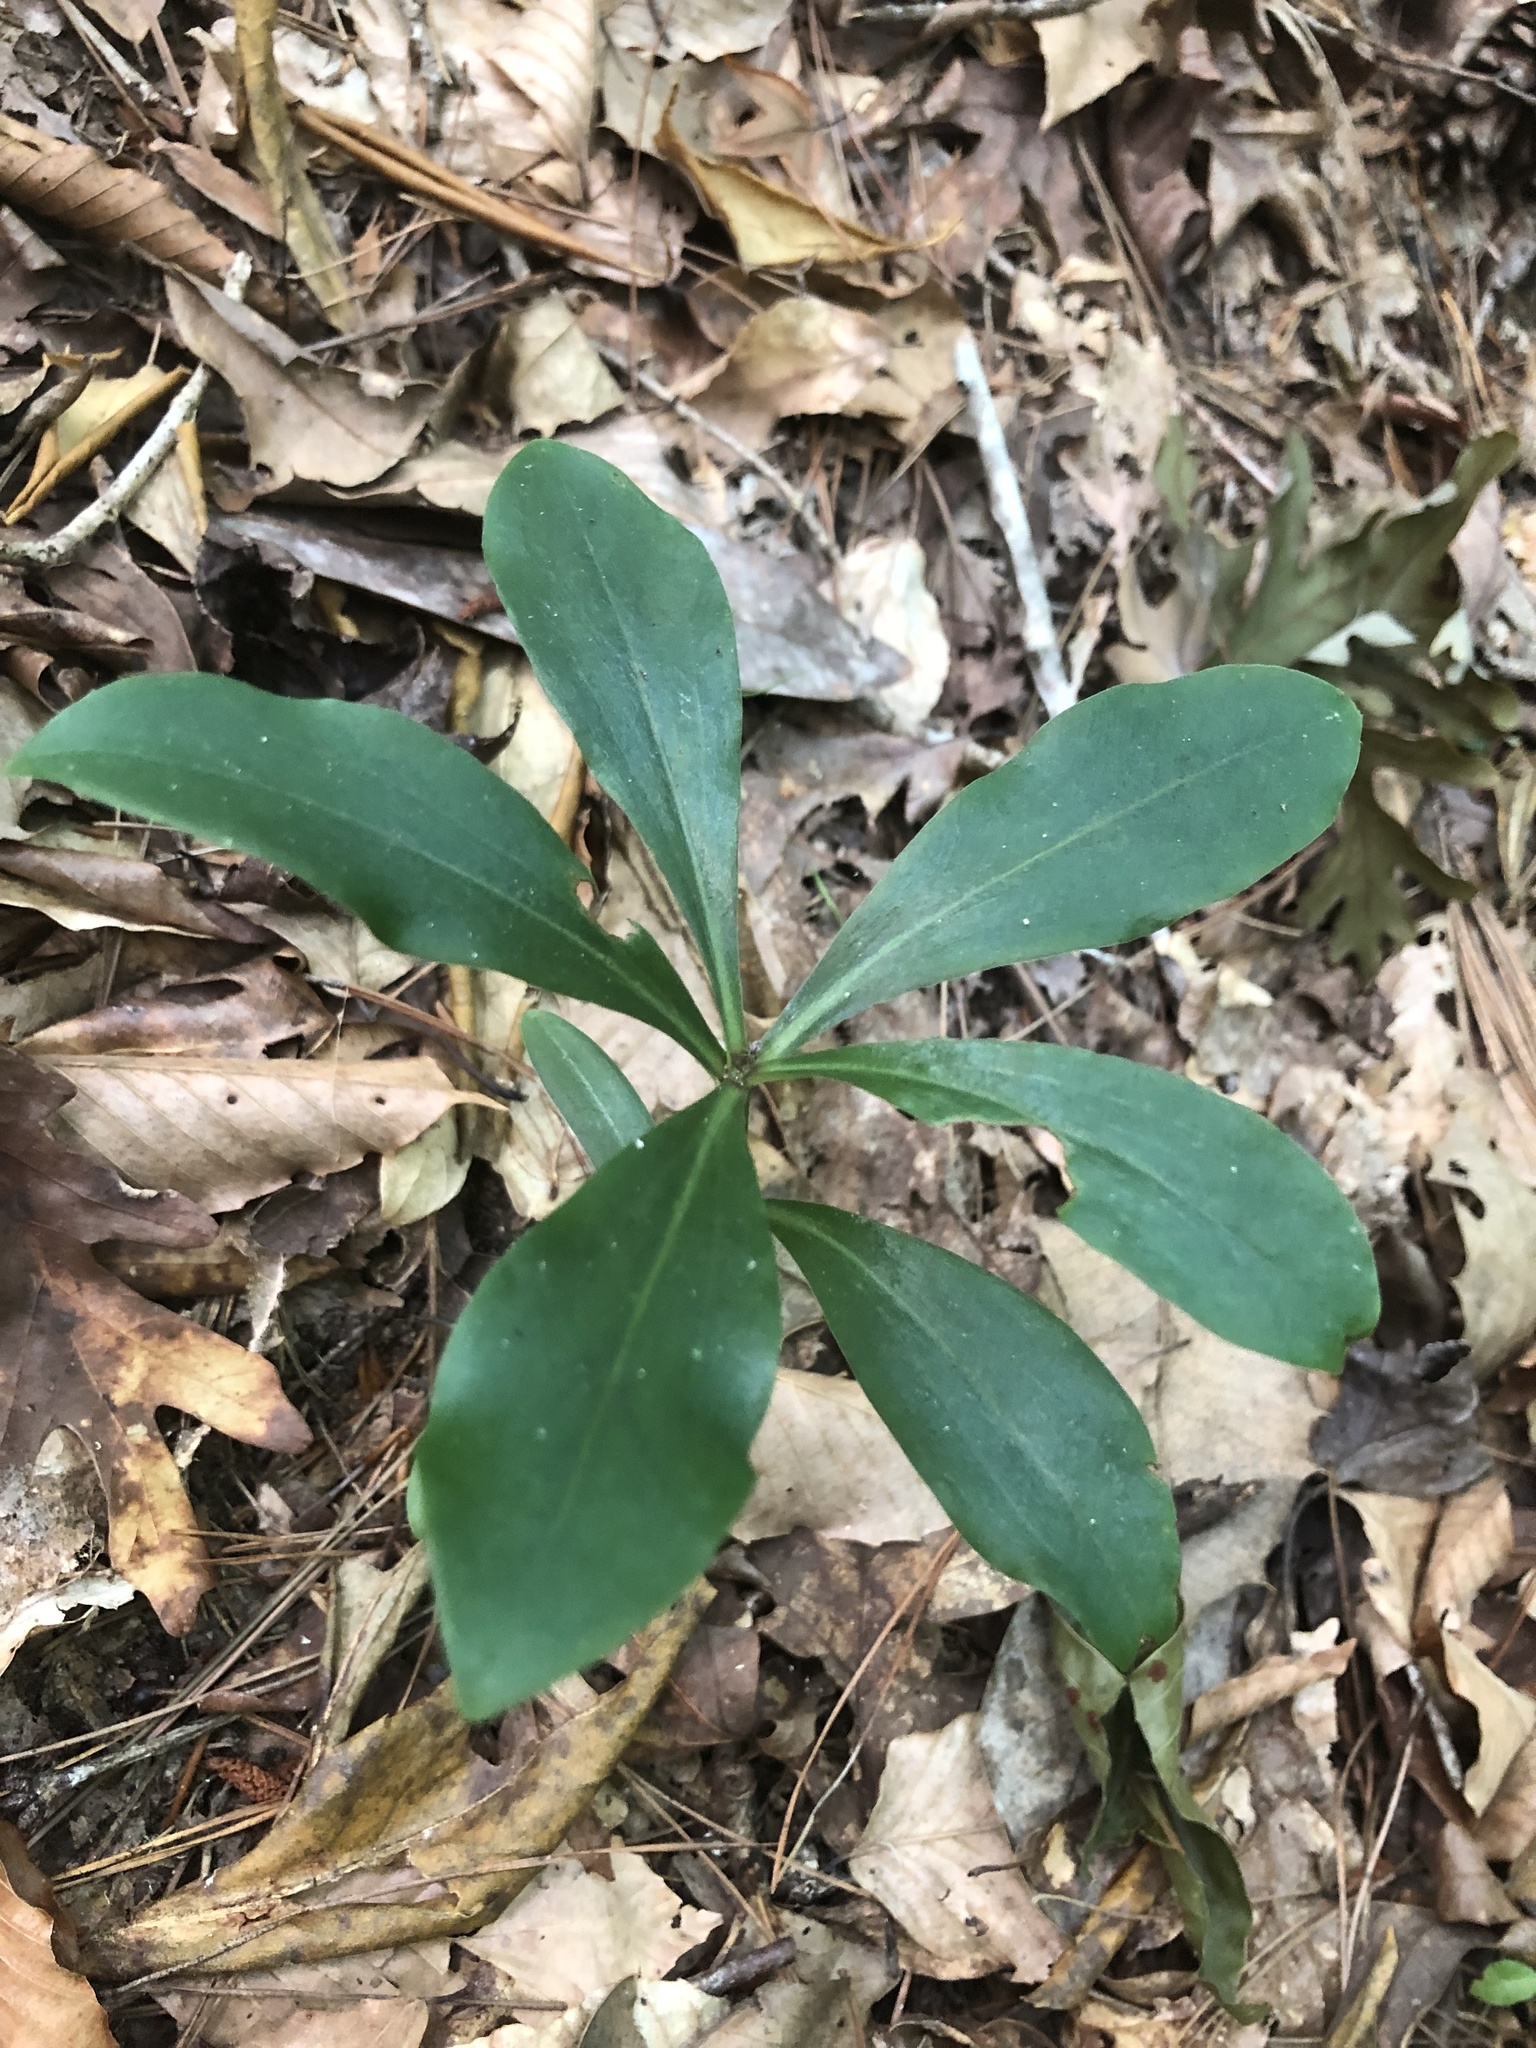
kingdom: Plantae
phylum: Tracheophyta
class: Liliopsida
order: Liliales
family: Liliaceae
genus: Lilium
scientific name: Lilium michauxii
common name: Carolina lily
